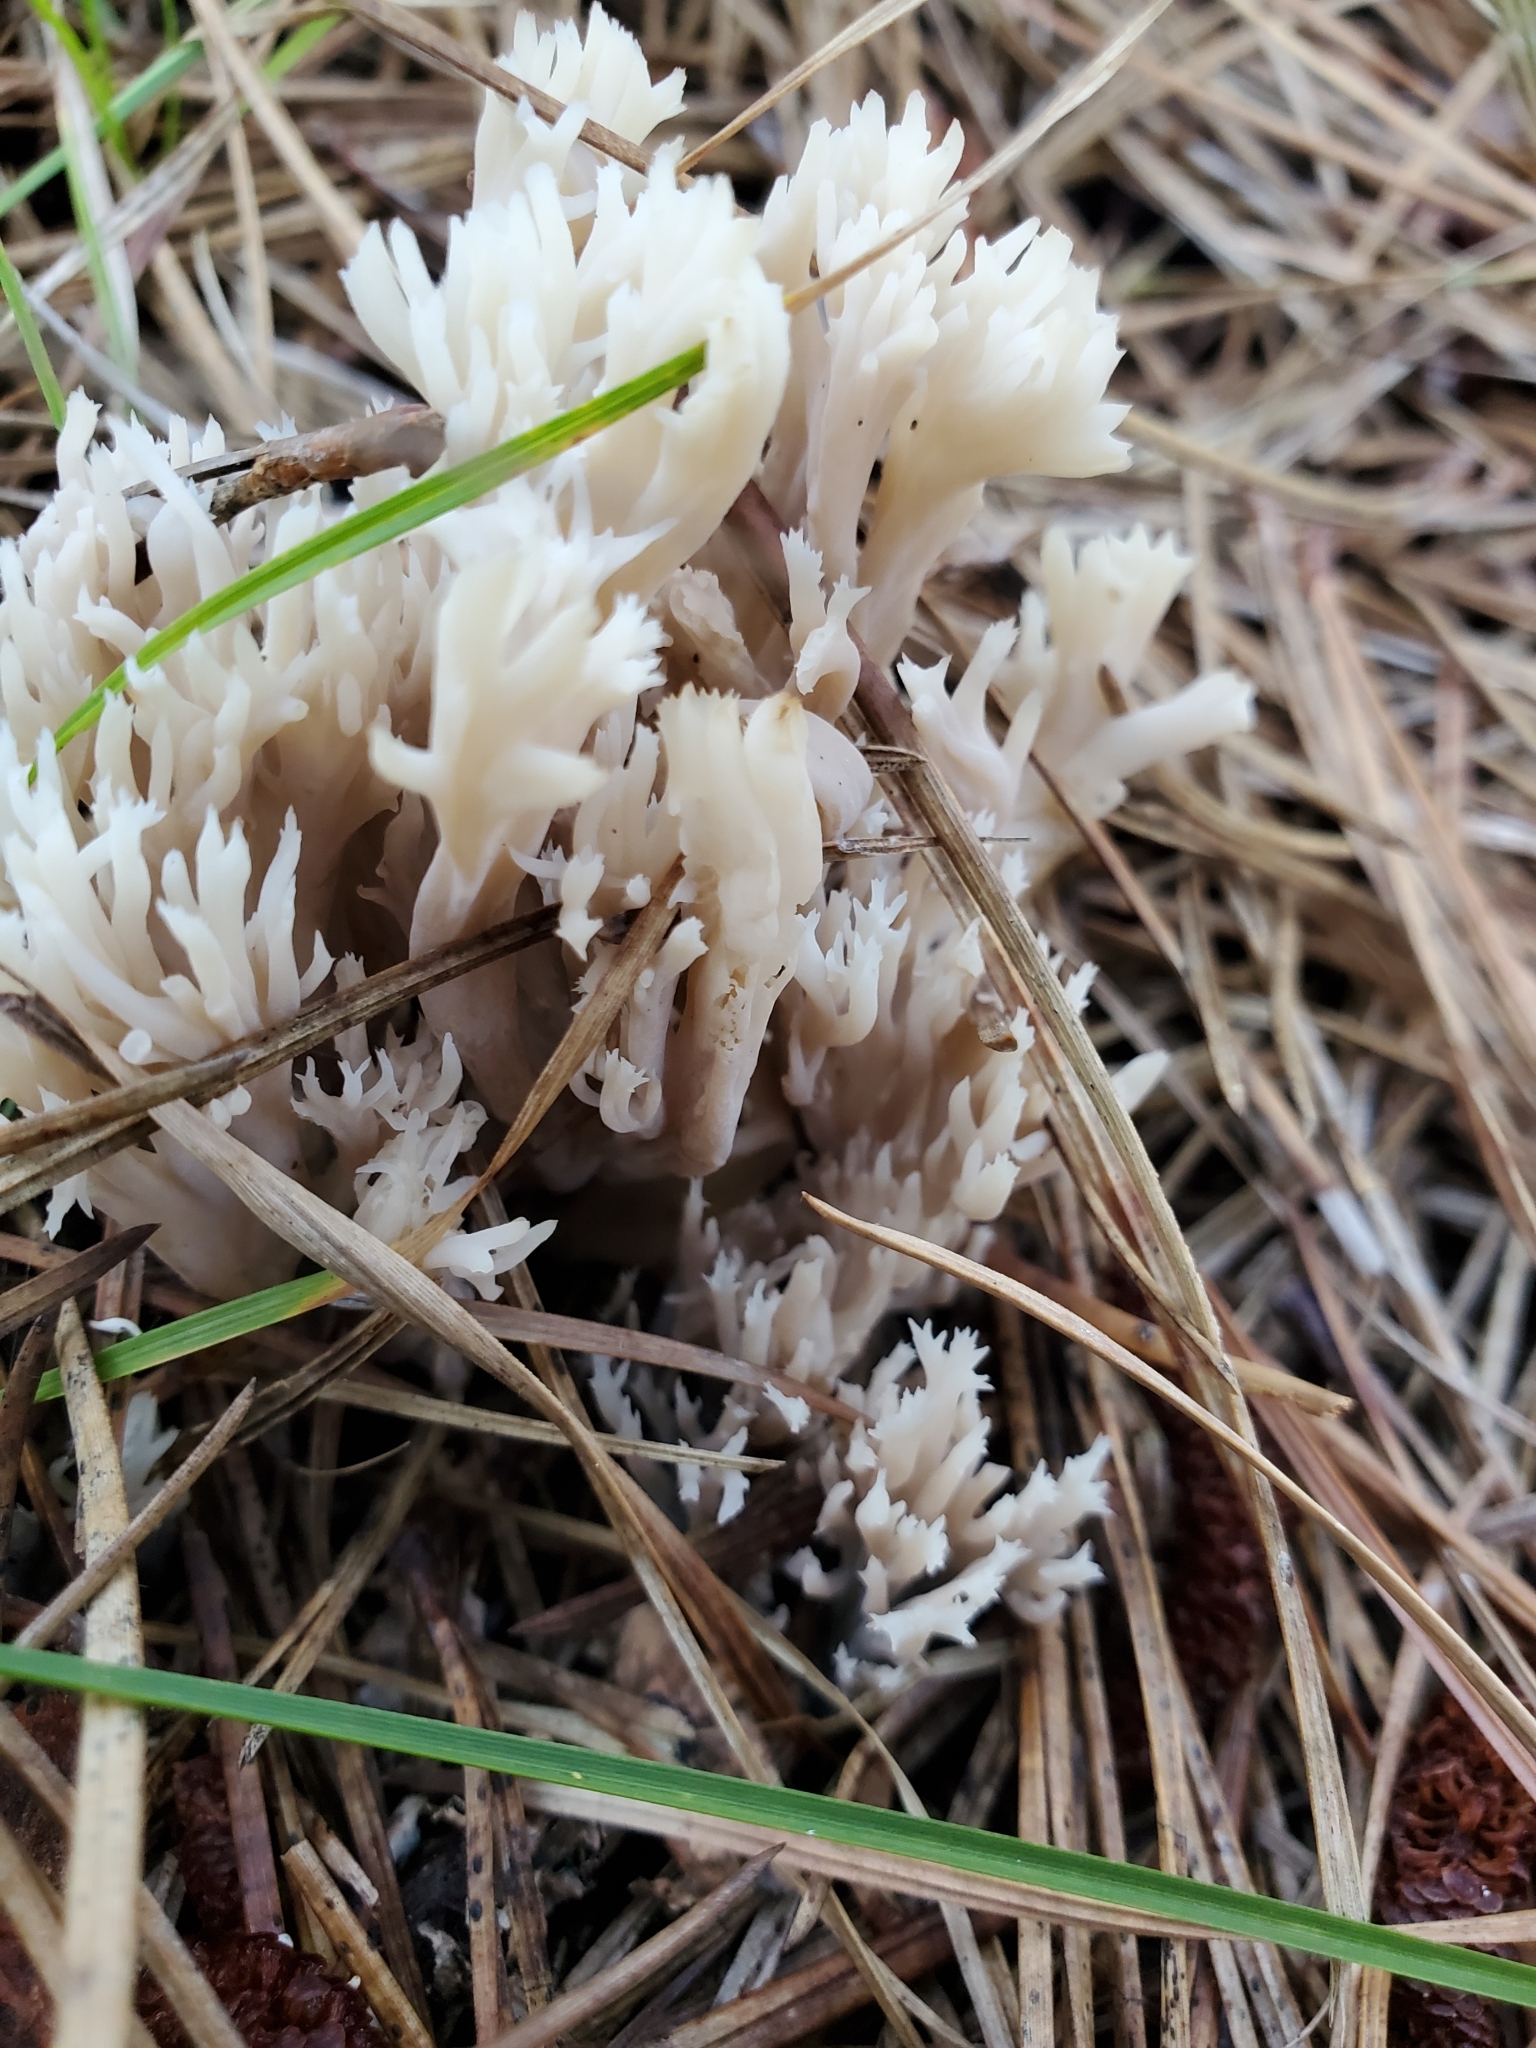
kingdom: Fungi
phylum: Basidiomycota
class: Agaricomycetes
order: Cantharellales
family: Hydnaceae
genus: Clavulina
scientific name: Clavulina coralloides
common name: Crested coral
